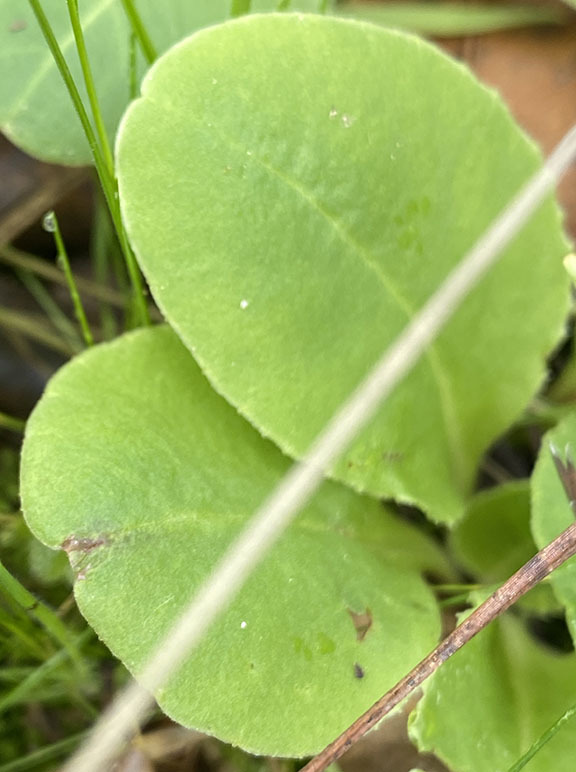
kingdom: Plantae
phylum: Tracheophyta
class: Magnoliopsida
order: Ericales
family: Primulaceae
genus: Dodecatheon
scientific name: Dodecatheon hendersonii
